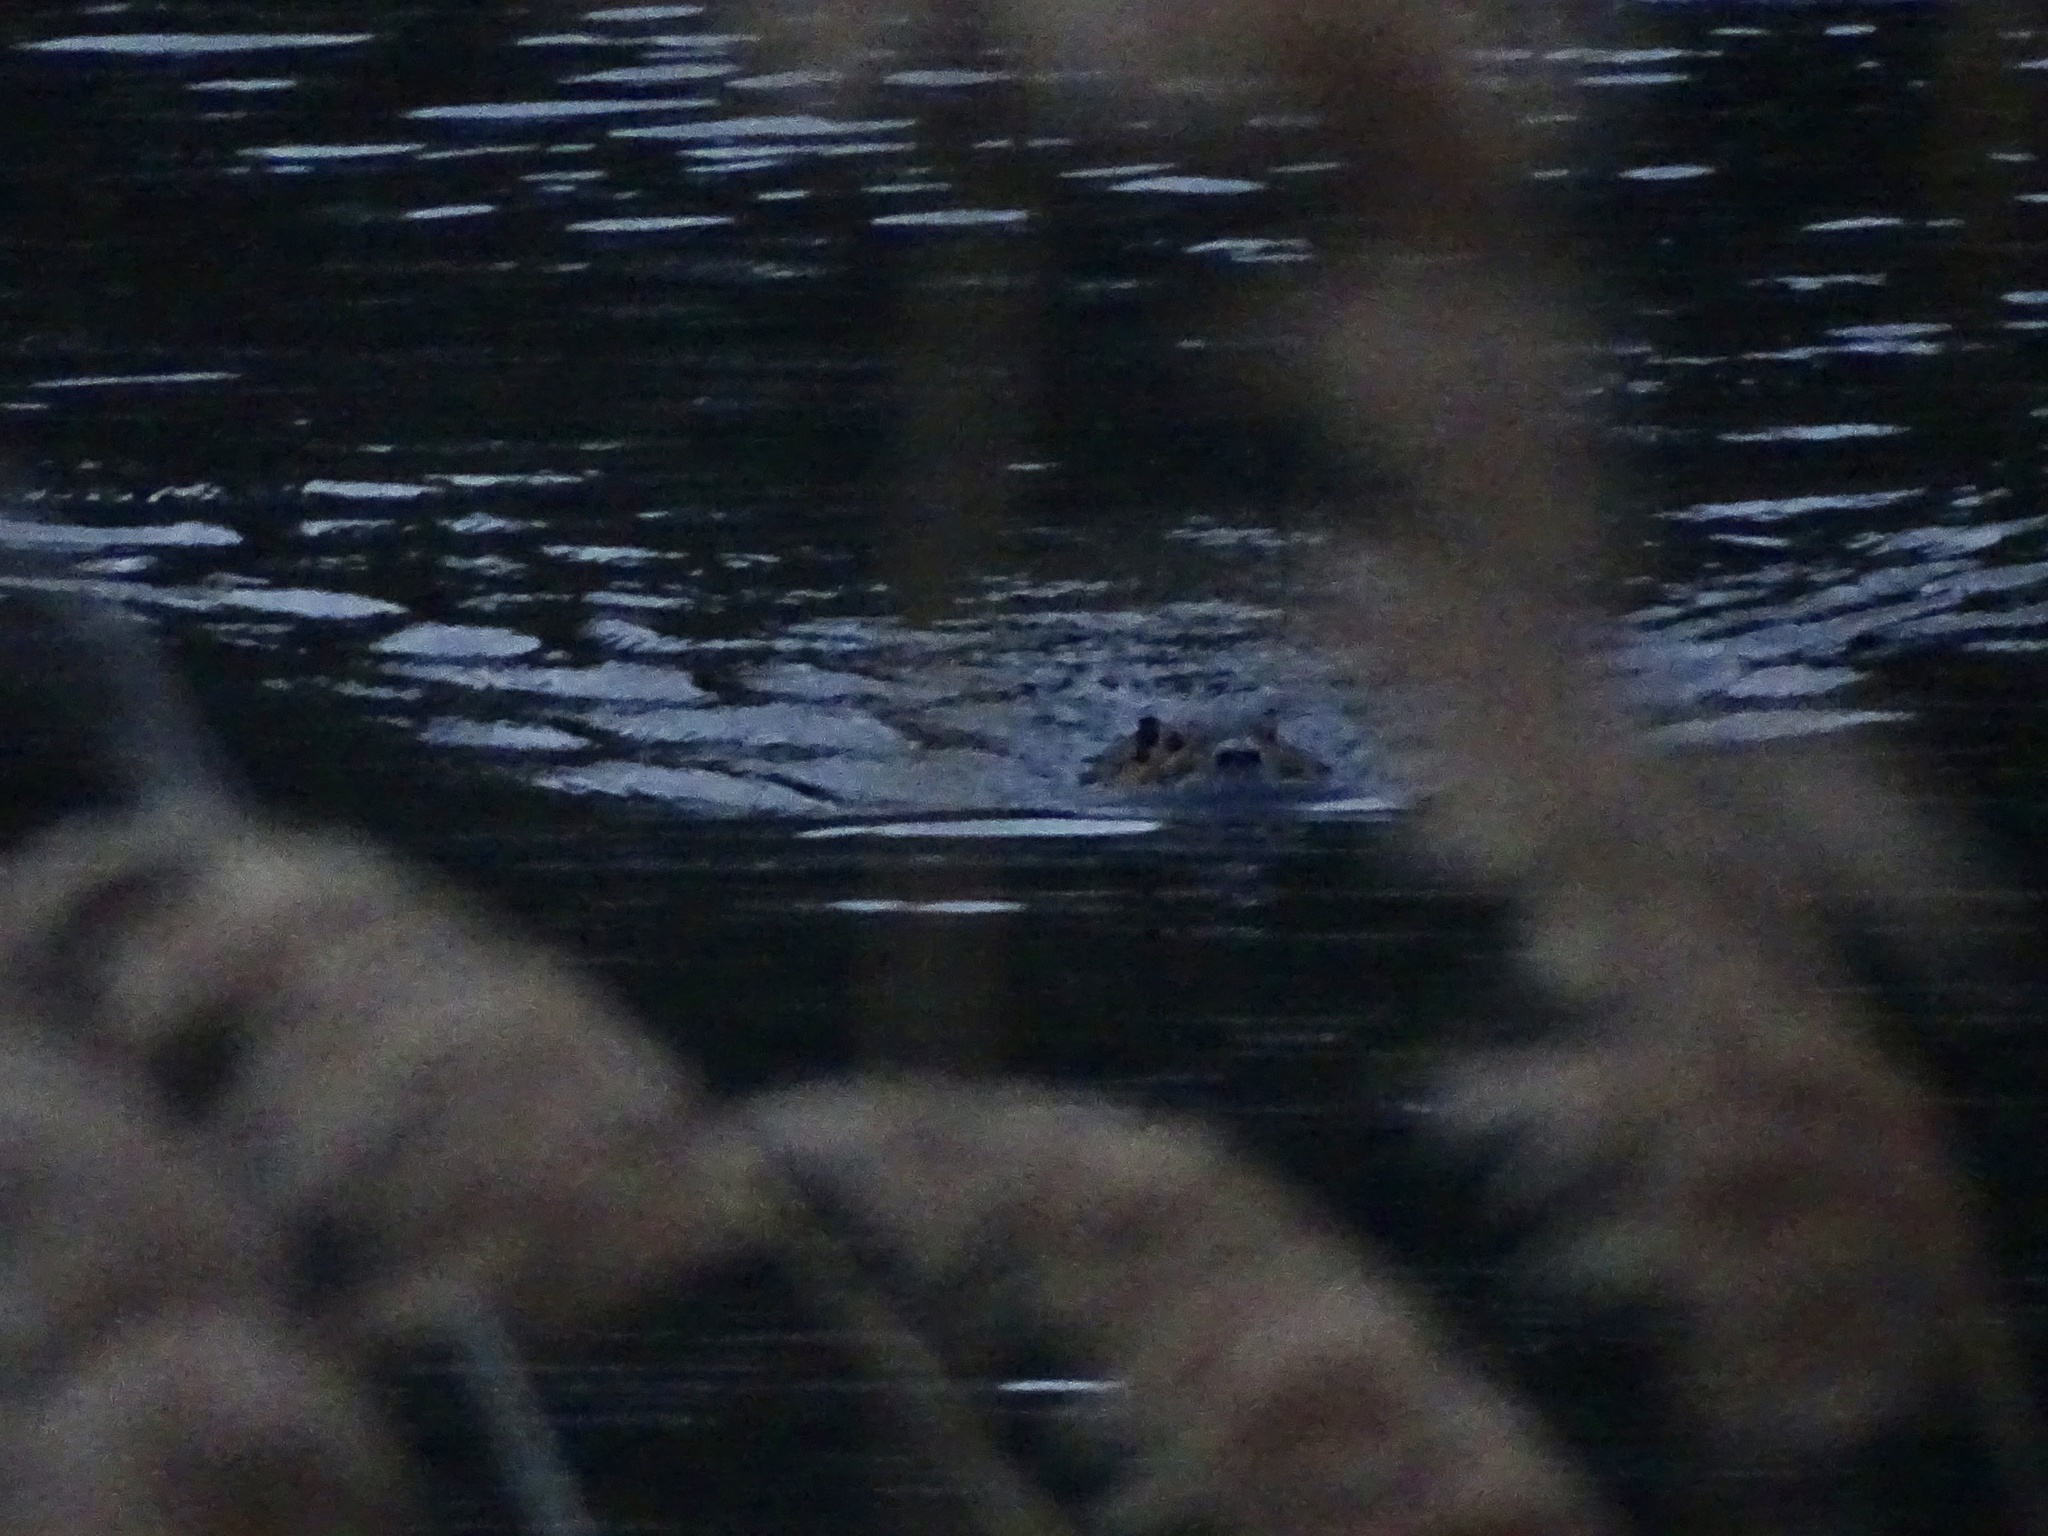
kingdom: Animalia
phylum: Chordata
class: Mammalia
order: Rodentia
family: Castoridae
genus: Castor
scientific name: Castor canadensis
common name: American beaver
